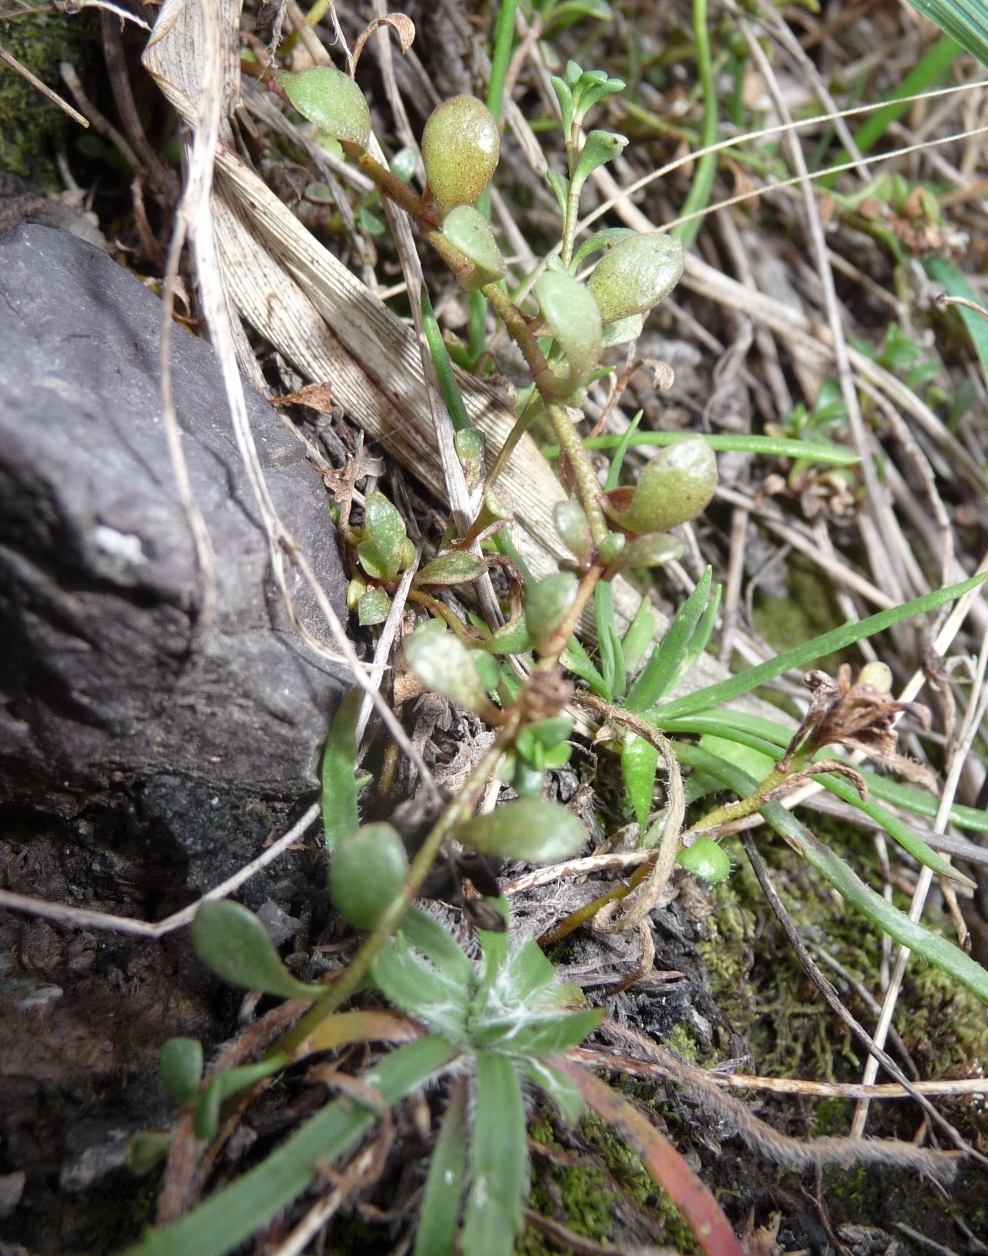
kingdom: Plantae
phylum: Tracheophyta
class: Magnoliopsida
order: Ericales
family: Primulaceae
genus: Samolus
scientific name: Samolus repens
